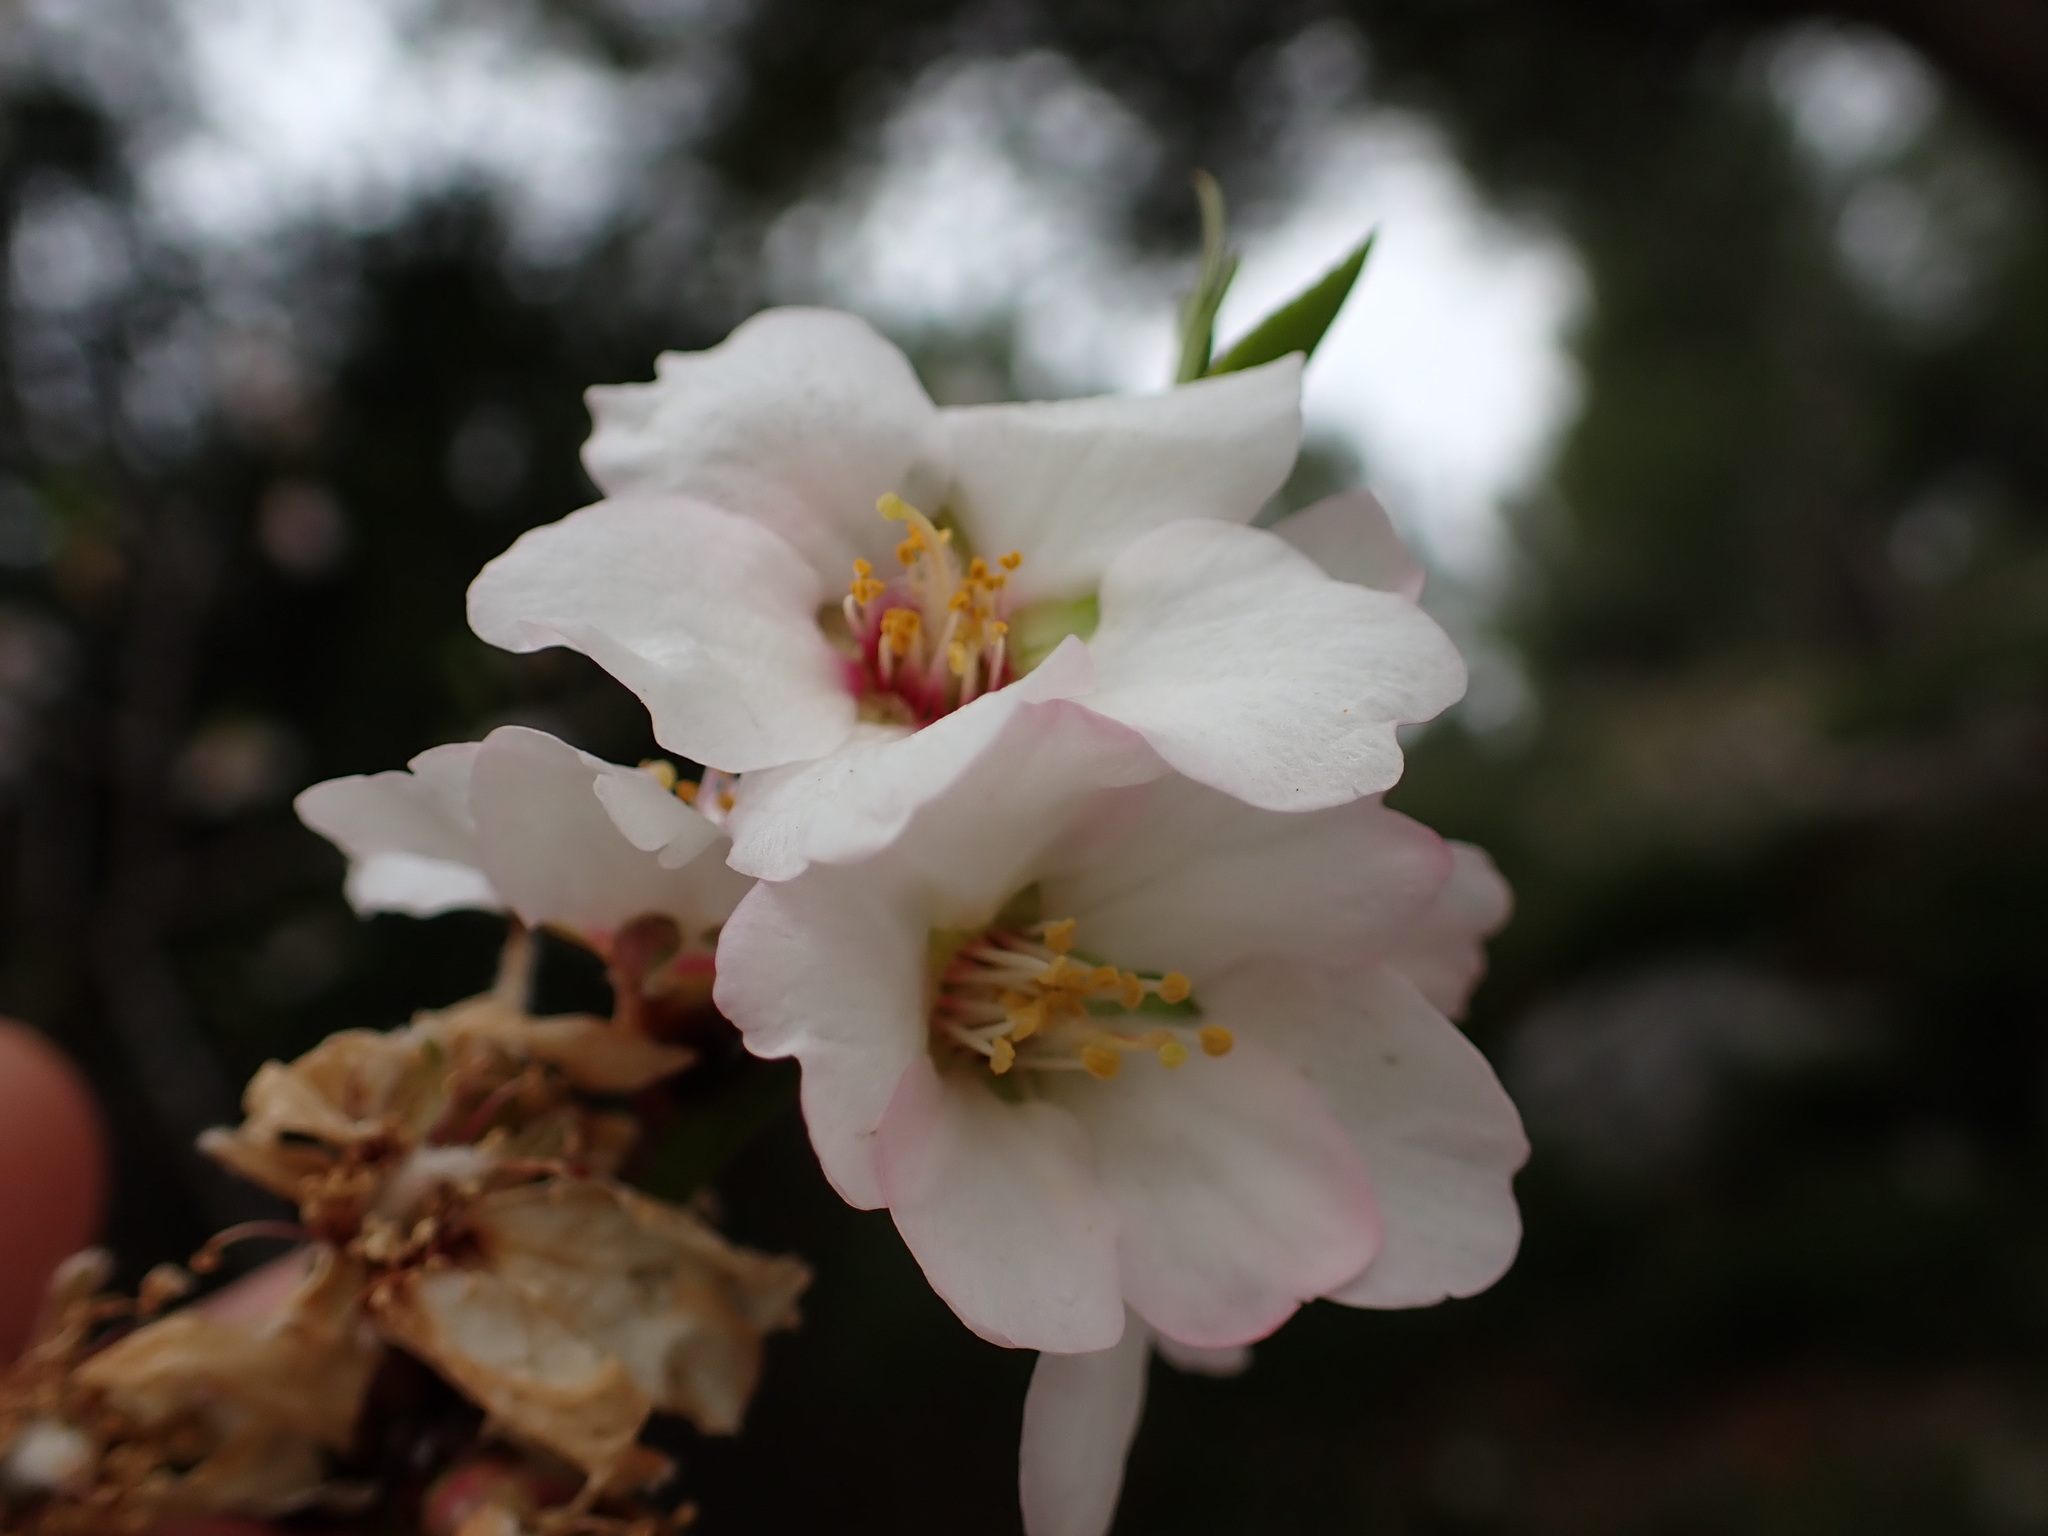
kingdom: Plantae
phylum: Tracheophyta
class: Magnoliopsida
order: Rosales
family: Rosaceae
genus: Prunus
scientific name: Prunus amygdalus
